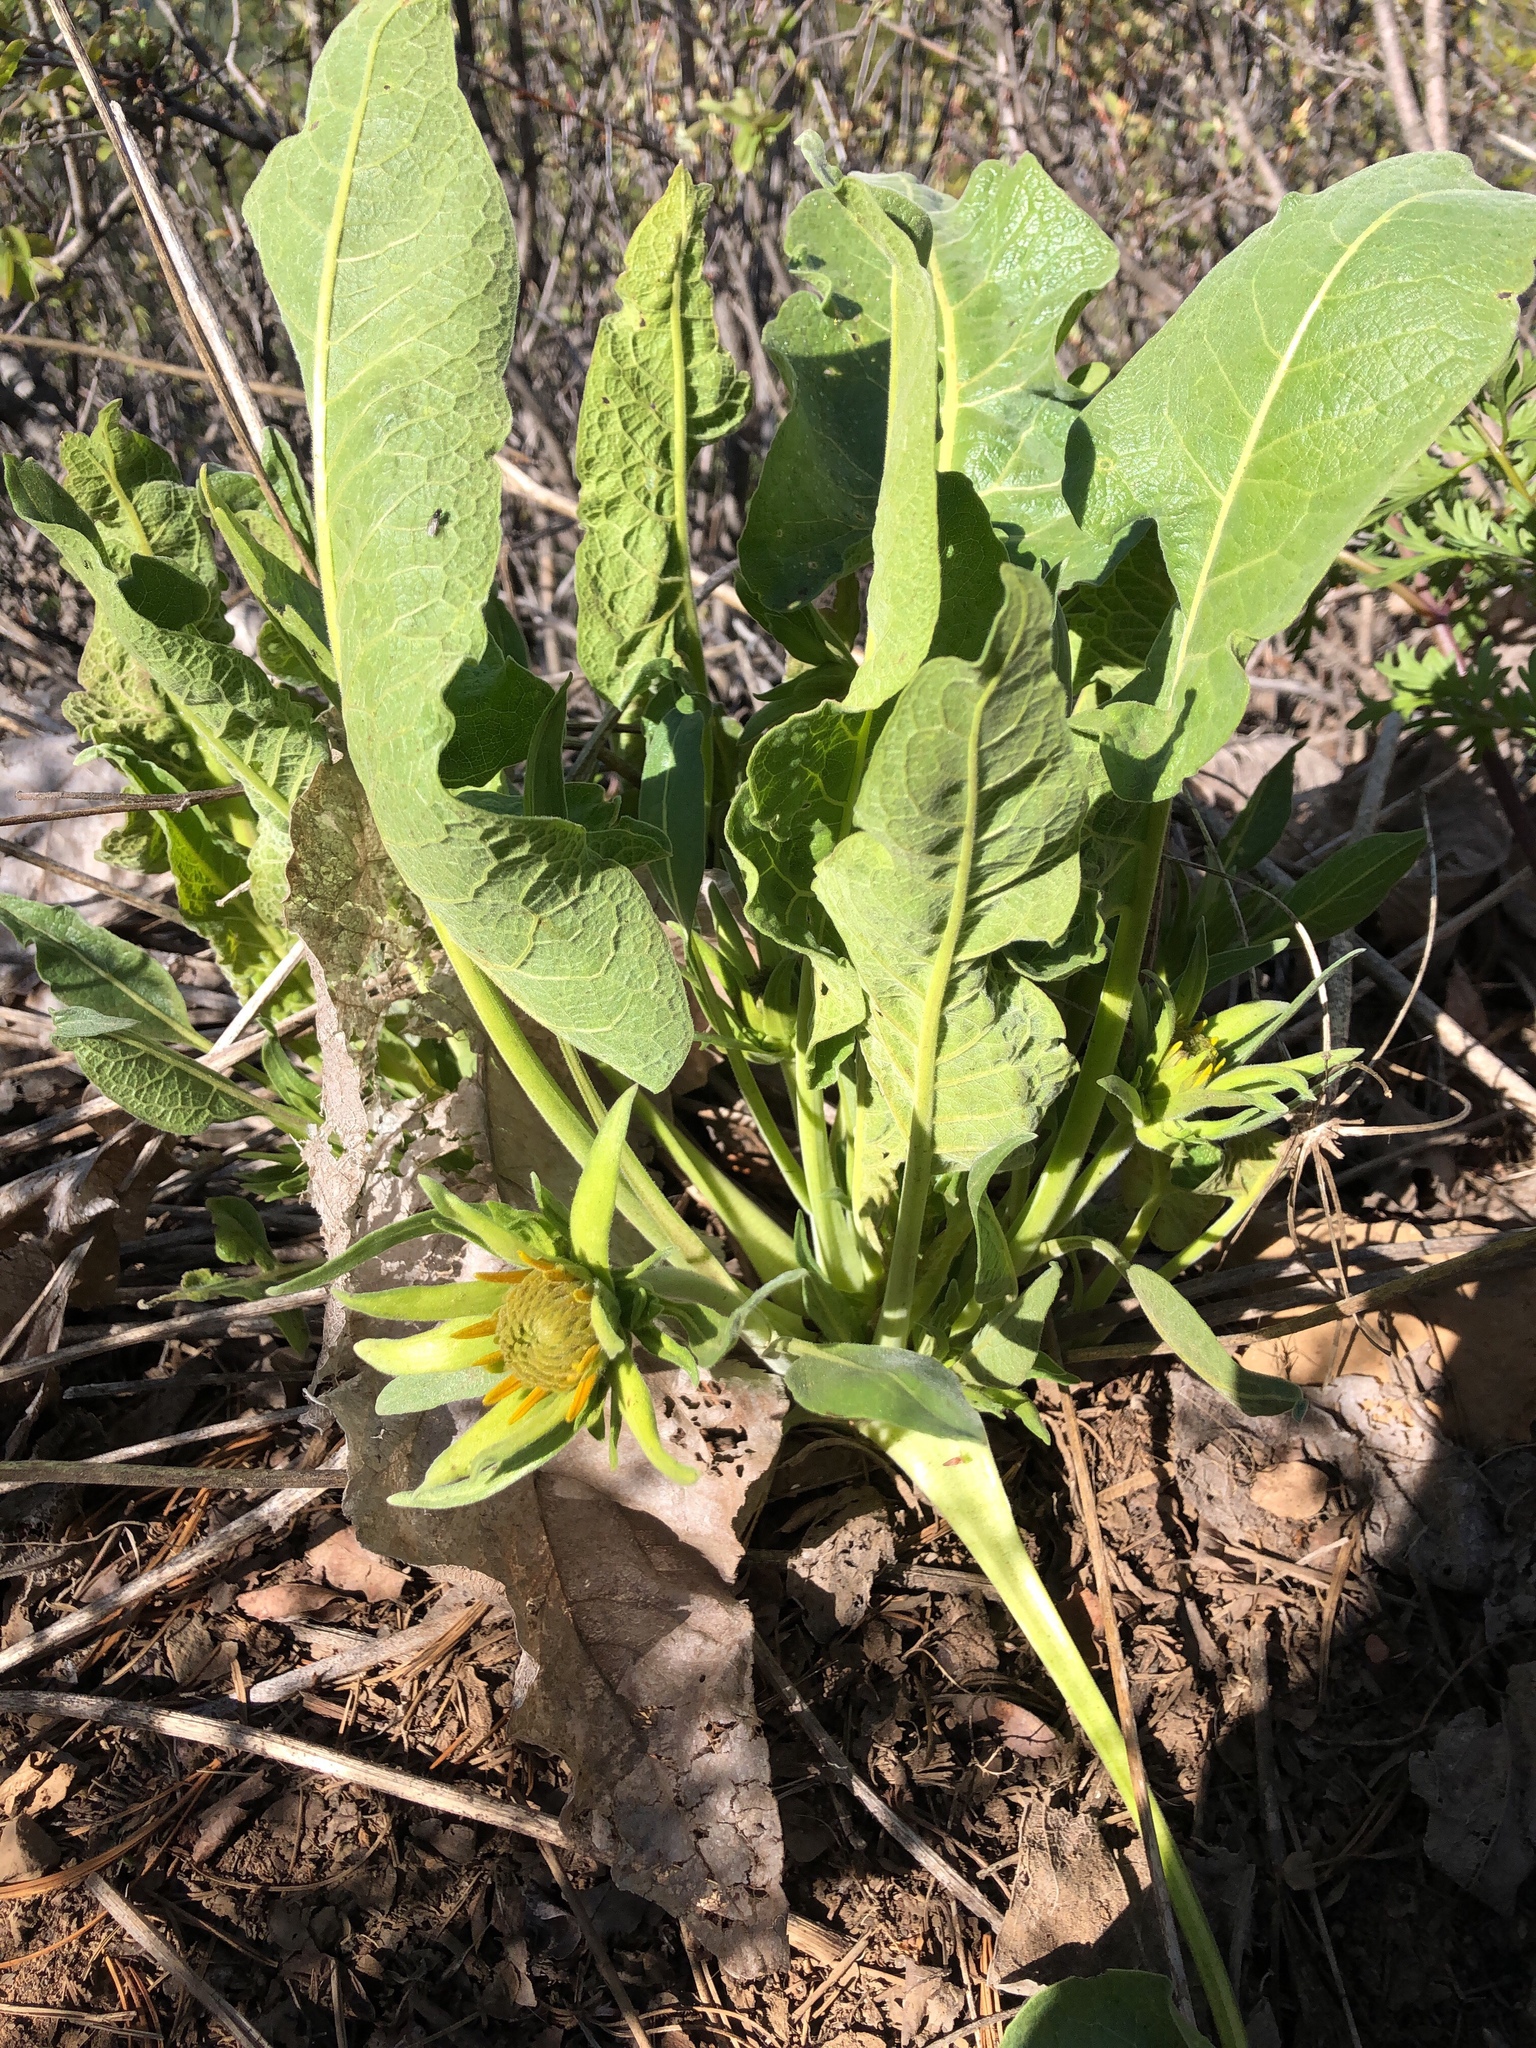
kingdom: Plantae
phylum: Tracheophyta
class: Magnoliopsida
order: Asterales
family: Asteraceae
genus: Wyethia
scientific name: Wyethia sagittata
